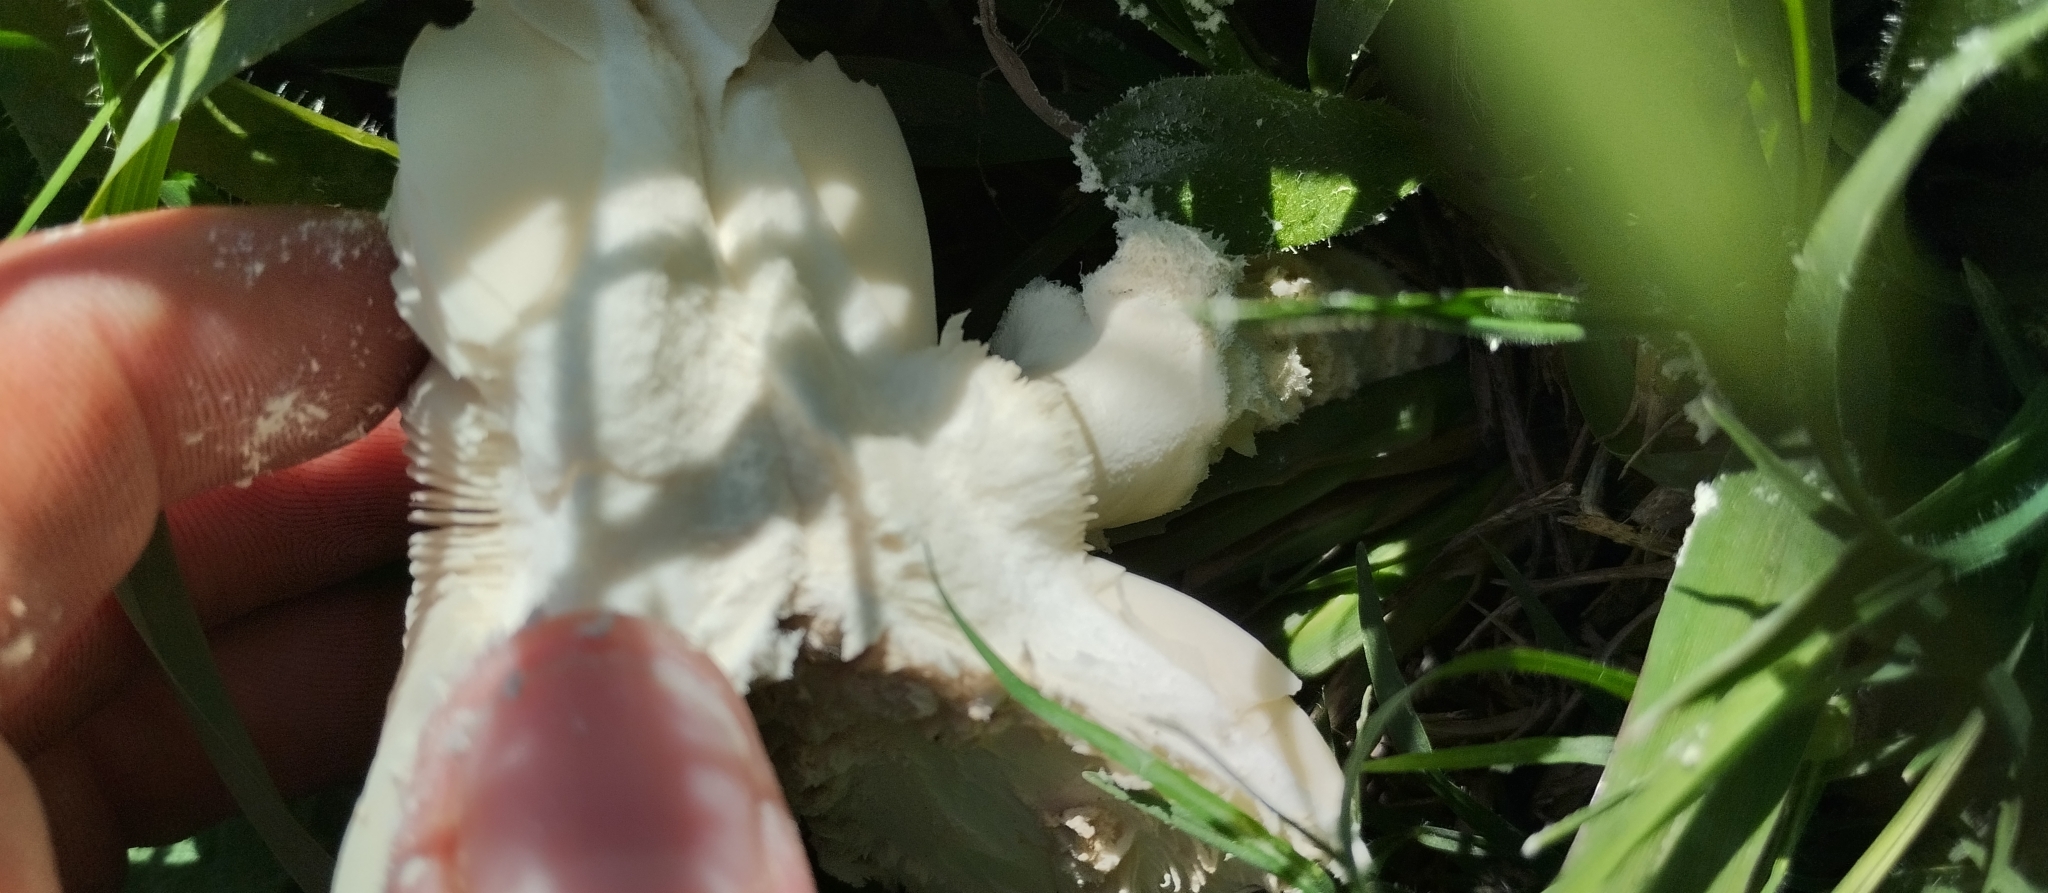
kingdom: Fungi
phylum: Basidiomycota
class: Agaricomycetes
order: Agaricales
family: Amanitaceae
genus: Aspidella
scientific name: Aspidella foetens
